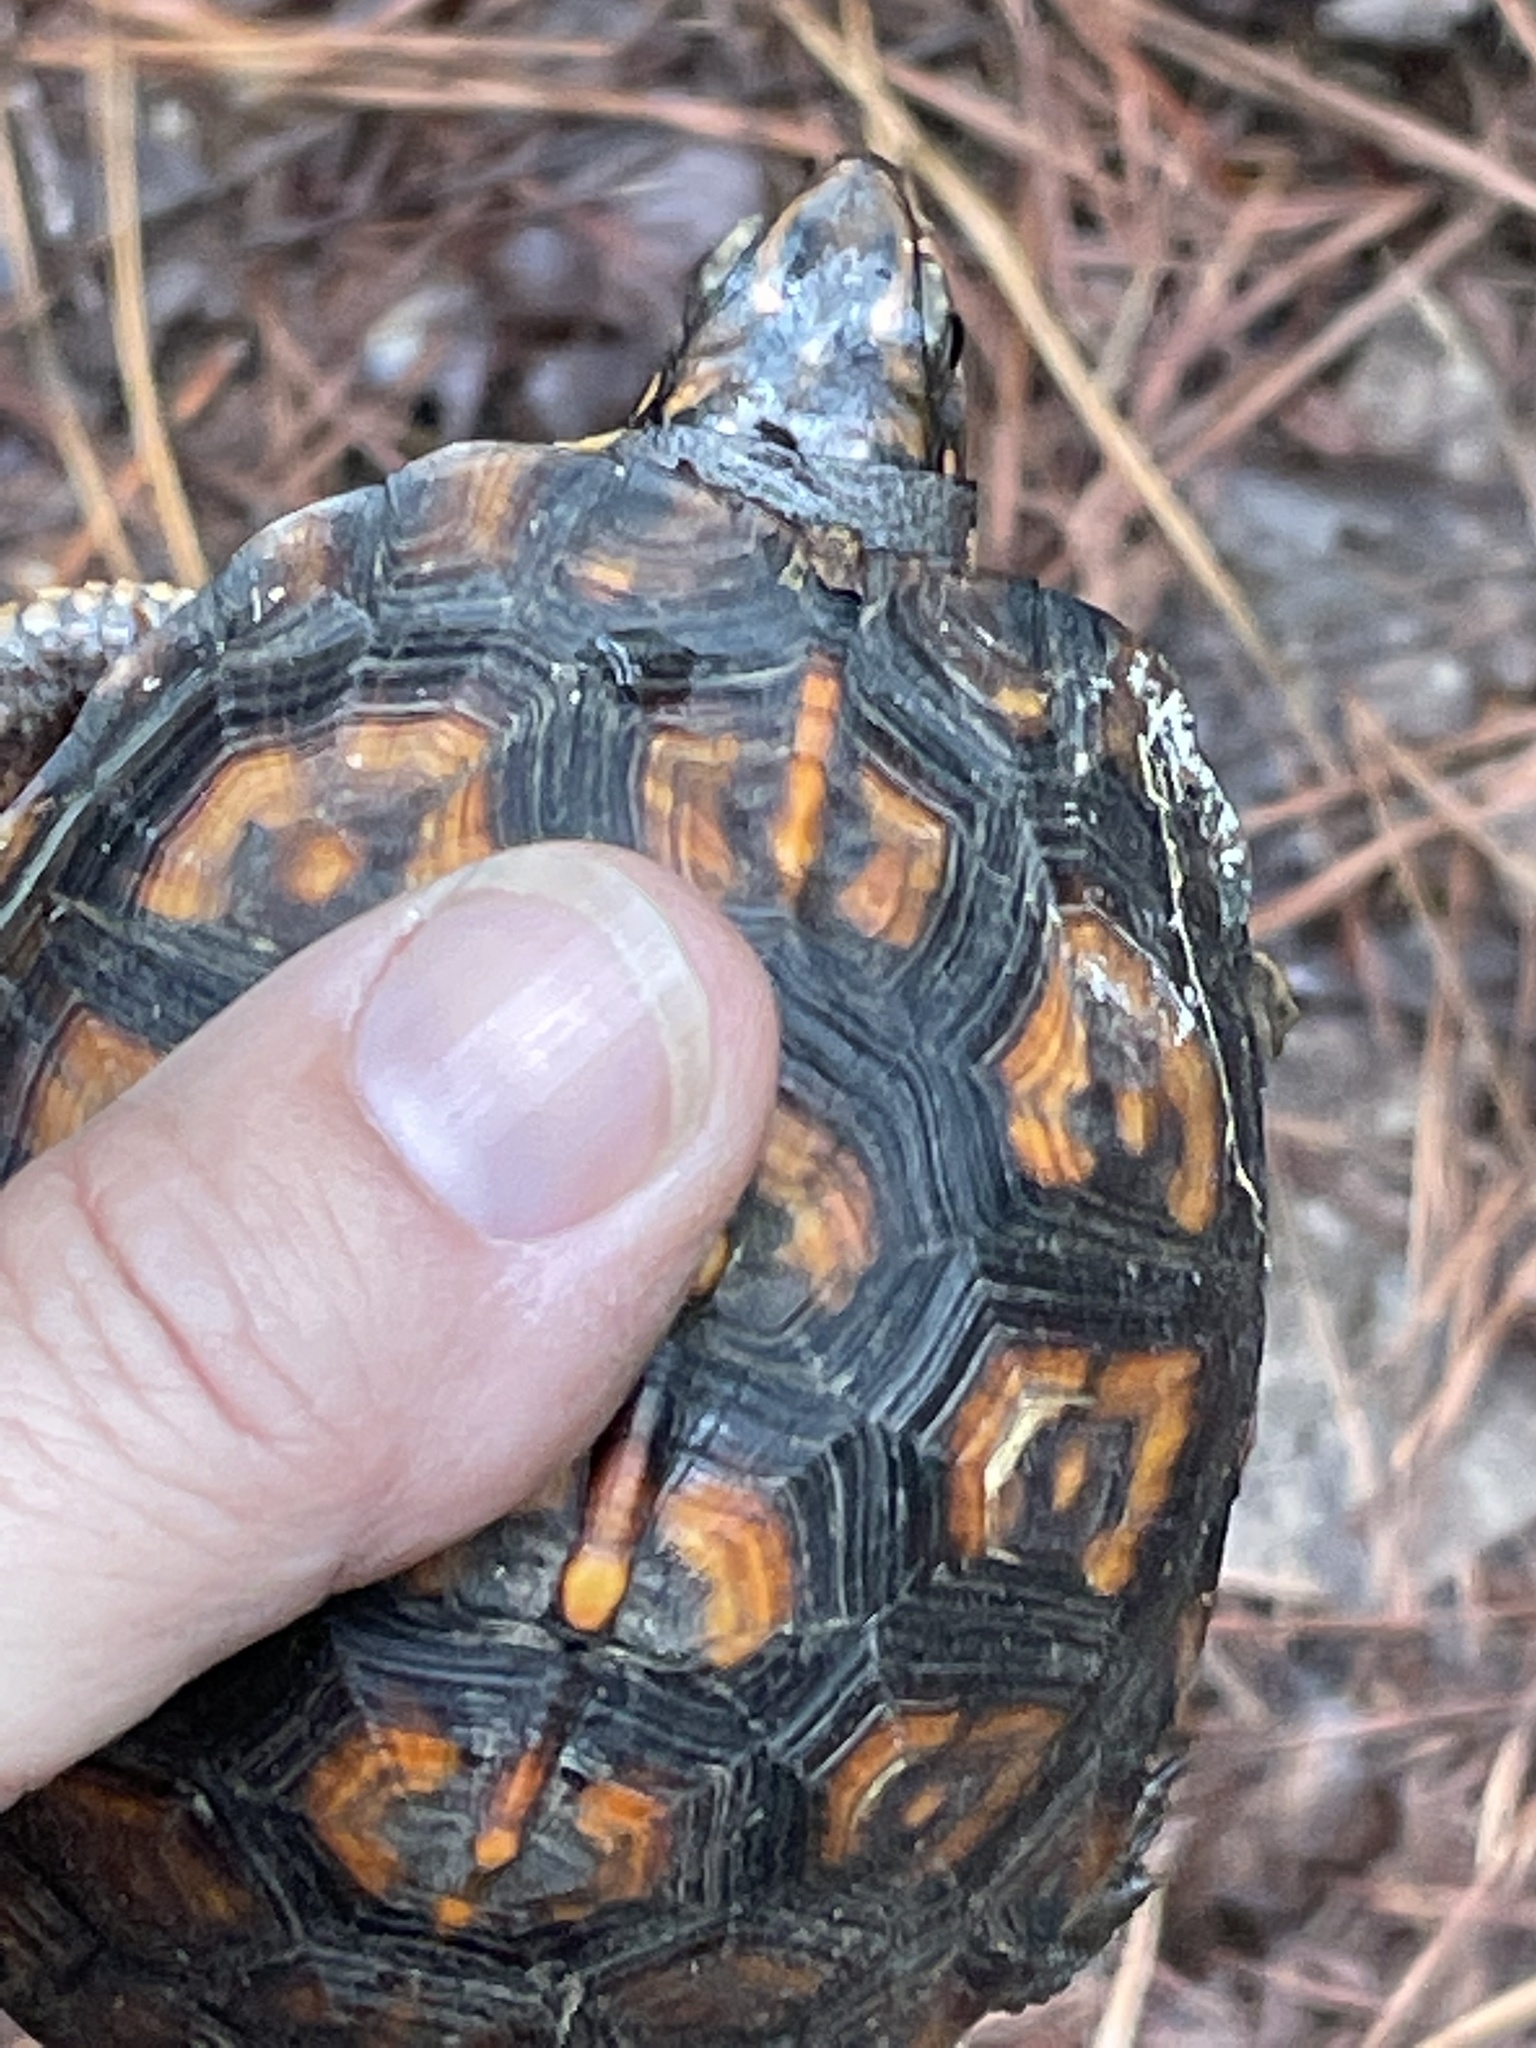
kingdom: Animalia
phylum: Chordata
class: Testudines
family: Emydidae
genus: Terrapene
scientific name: Terrapene carolina
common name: Common box turtle
